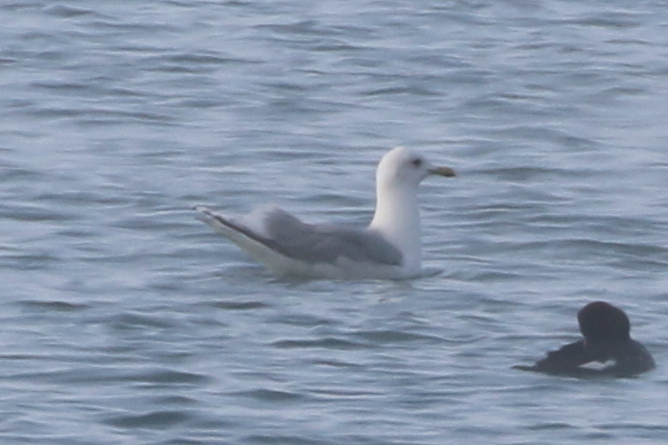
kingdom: Animalia
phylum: Chordata
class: Aves
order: Charadriiformes
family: Laridae
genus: Larus
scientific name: Larus glaucoides
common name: Iceland gull
